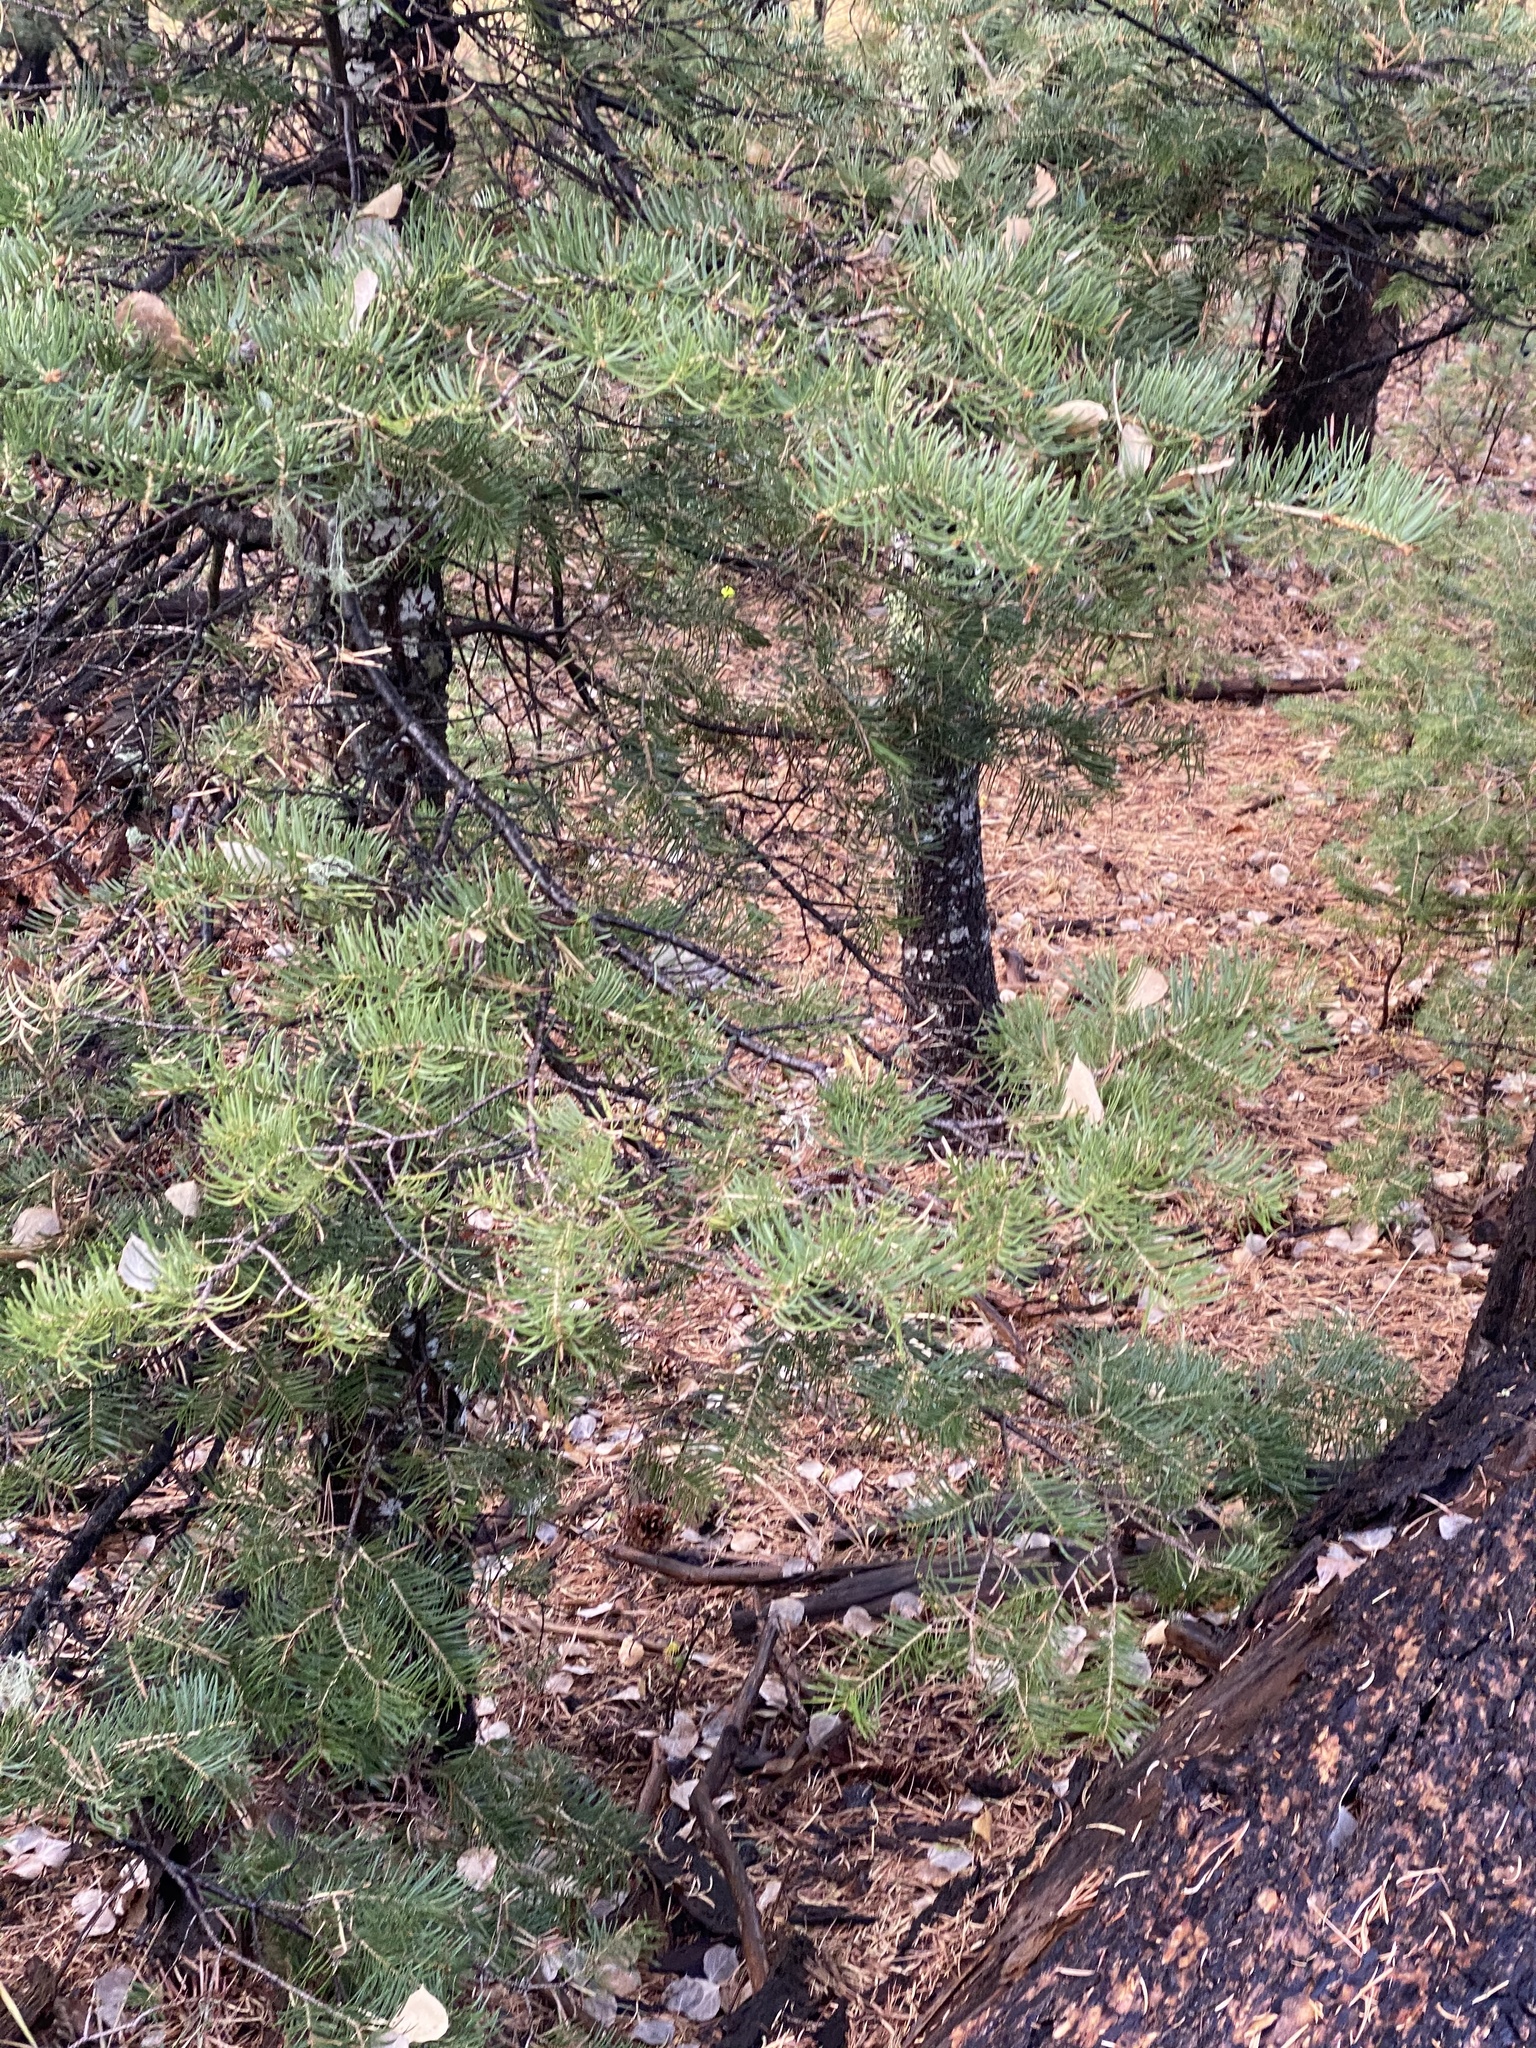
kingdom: Plantae
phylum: Tracheophyta
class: Pinopsida
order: Pinales
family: Pinaceae
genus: Abies
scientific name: Abies concolor
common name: Colorado fir
